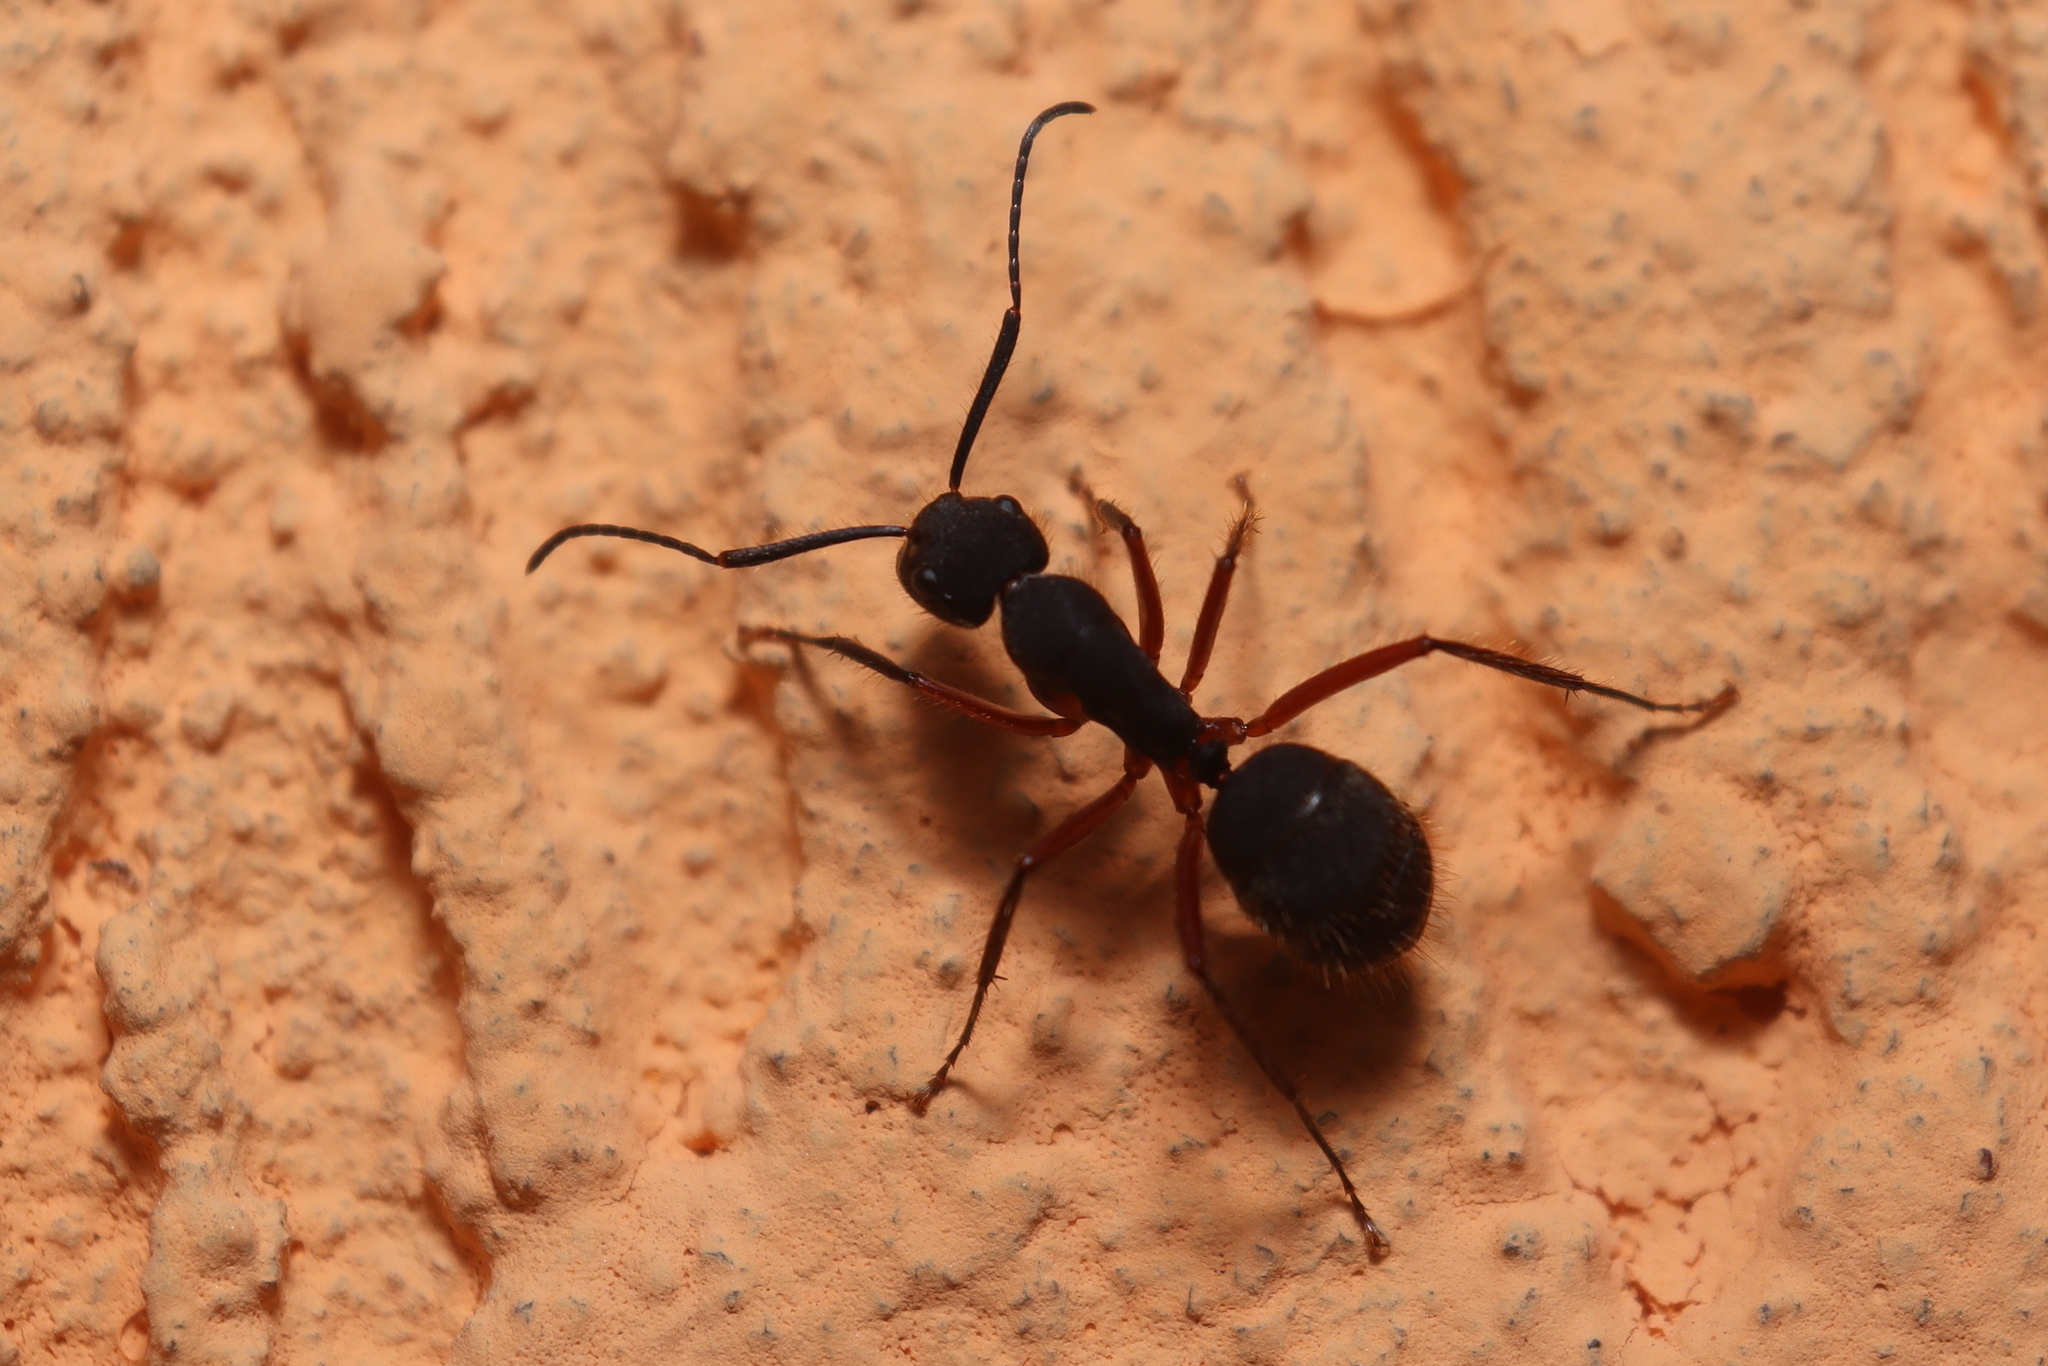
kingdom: Animalia
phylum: Arthropoda
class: Insecta
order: Hymenoptera
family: Formicidae
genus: Camponotus
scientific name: Camponotus rufipes
